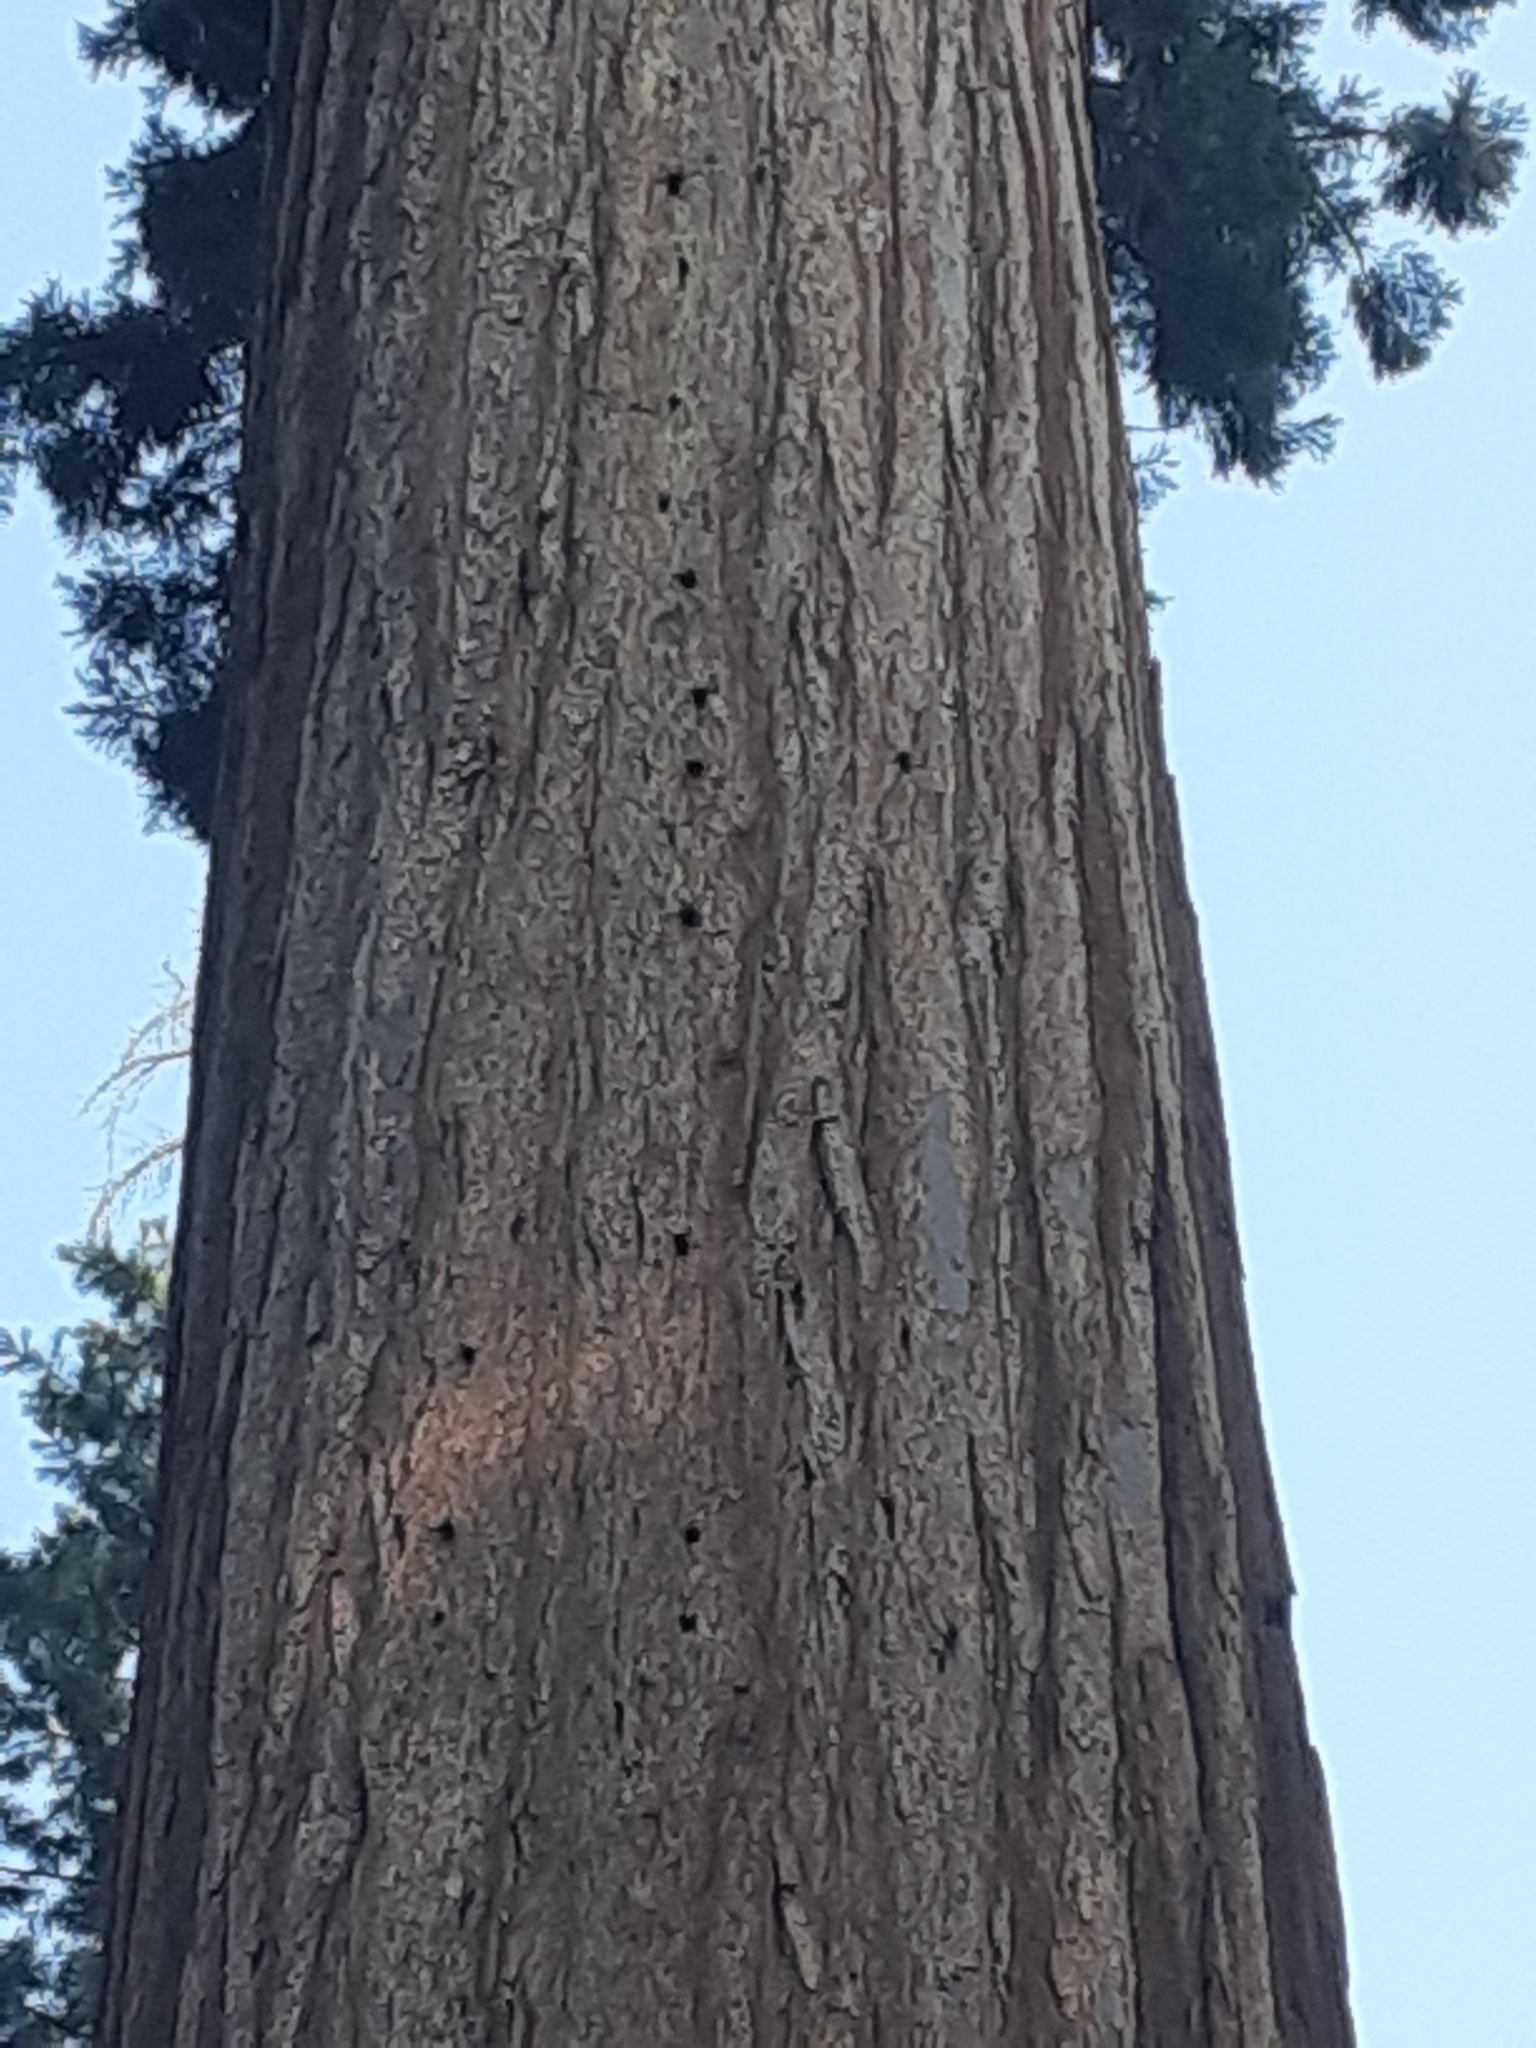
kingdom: Plantae
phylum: Tracheophyta
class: Pinopsida
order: Pinales
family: Cupressaceae
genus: Sequoiadendron
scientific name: Sequoiadendron giganteum
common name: Wellingtonia
